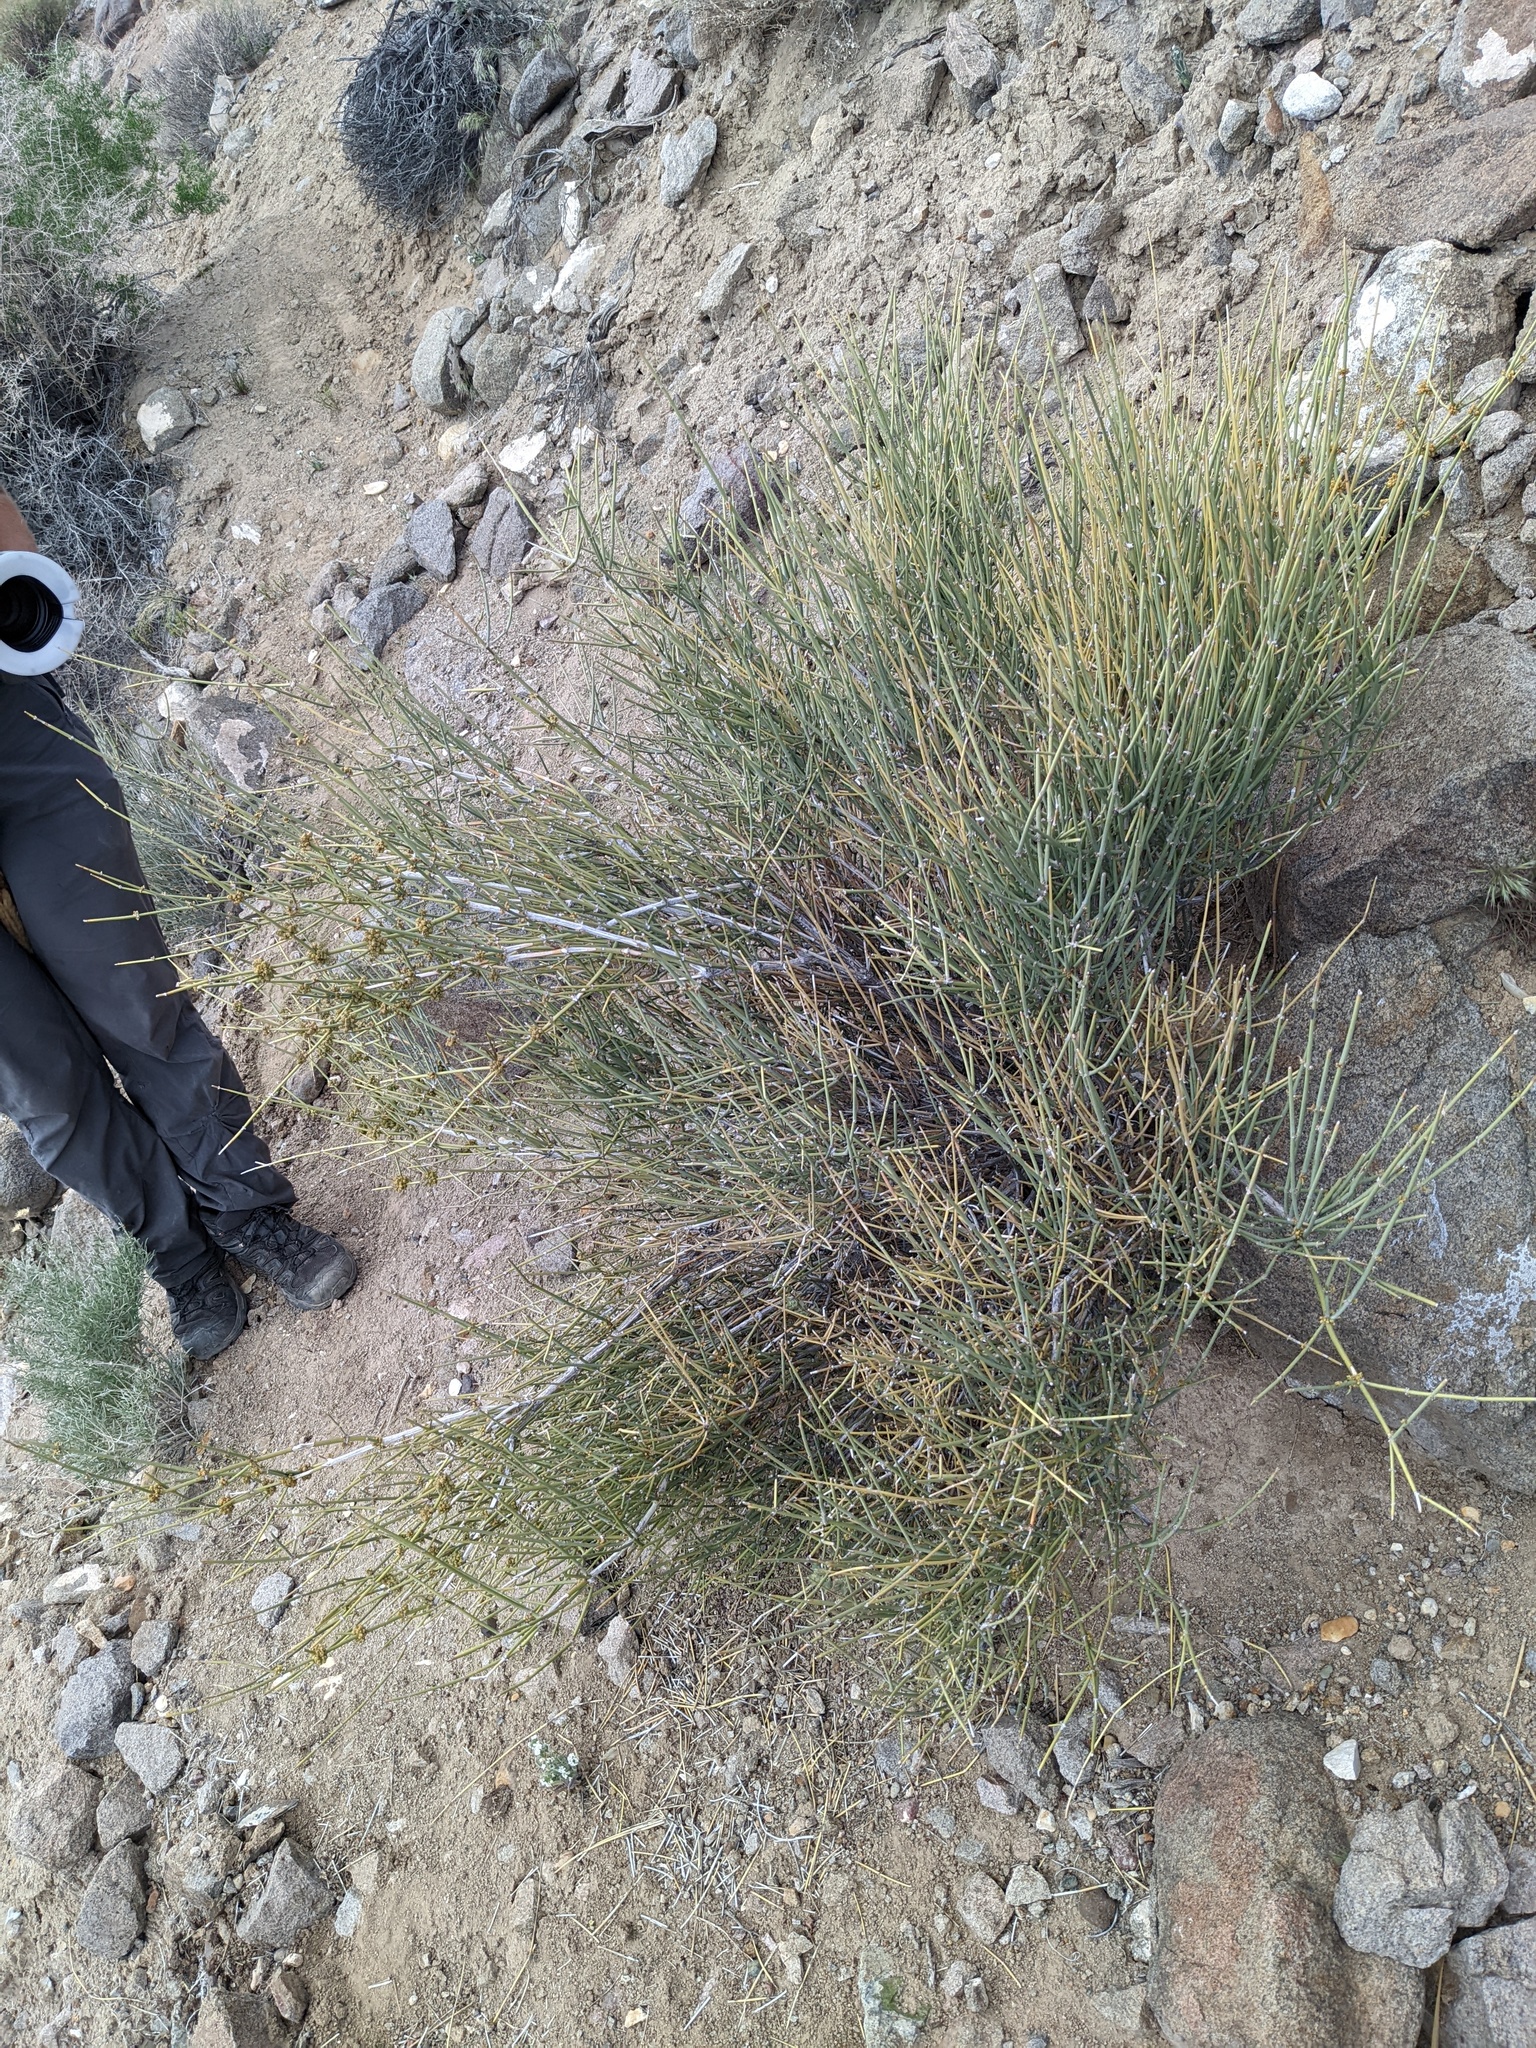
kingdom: Plantae
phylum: Tracheophyta
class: Gnetopsida
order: Ephedrales
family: Ephedraceae
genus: Ephedra
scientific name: Ephedra nevadensis
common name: Gray ephedra
